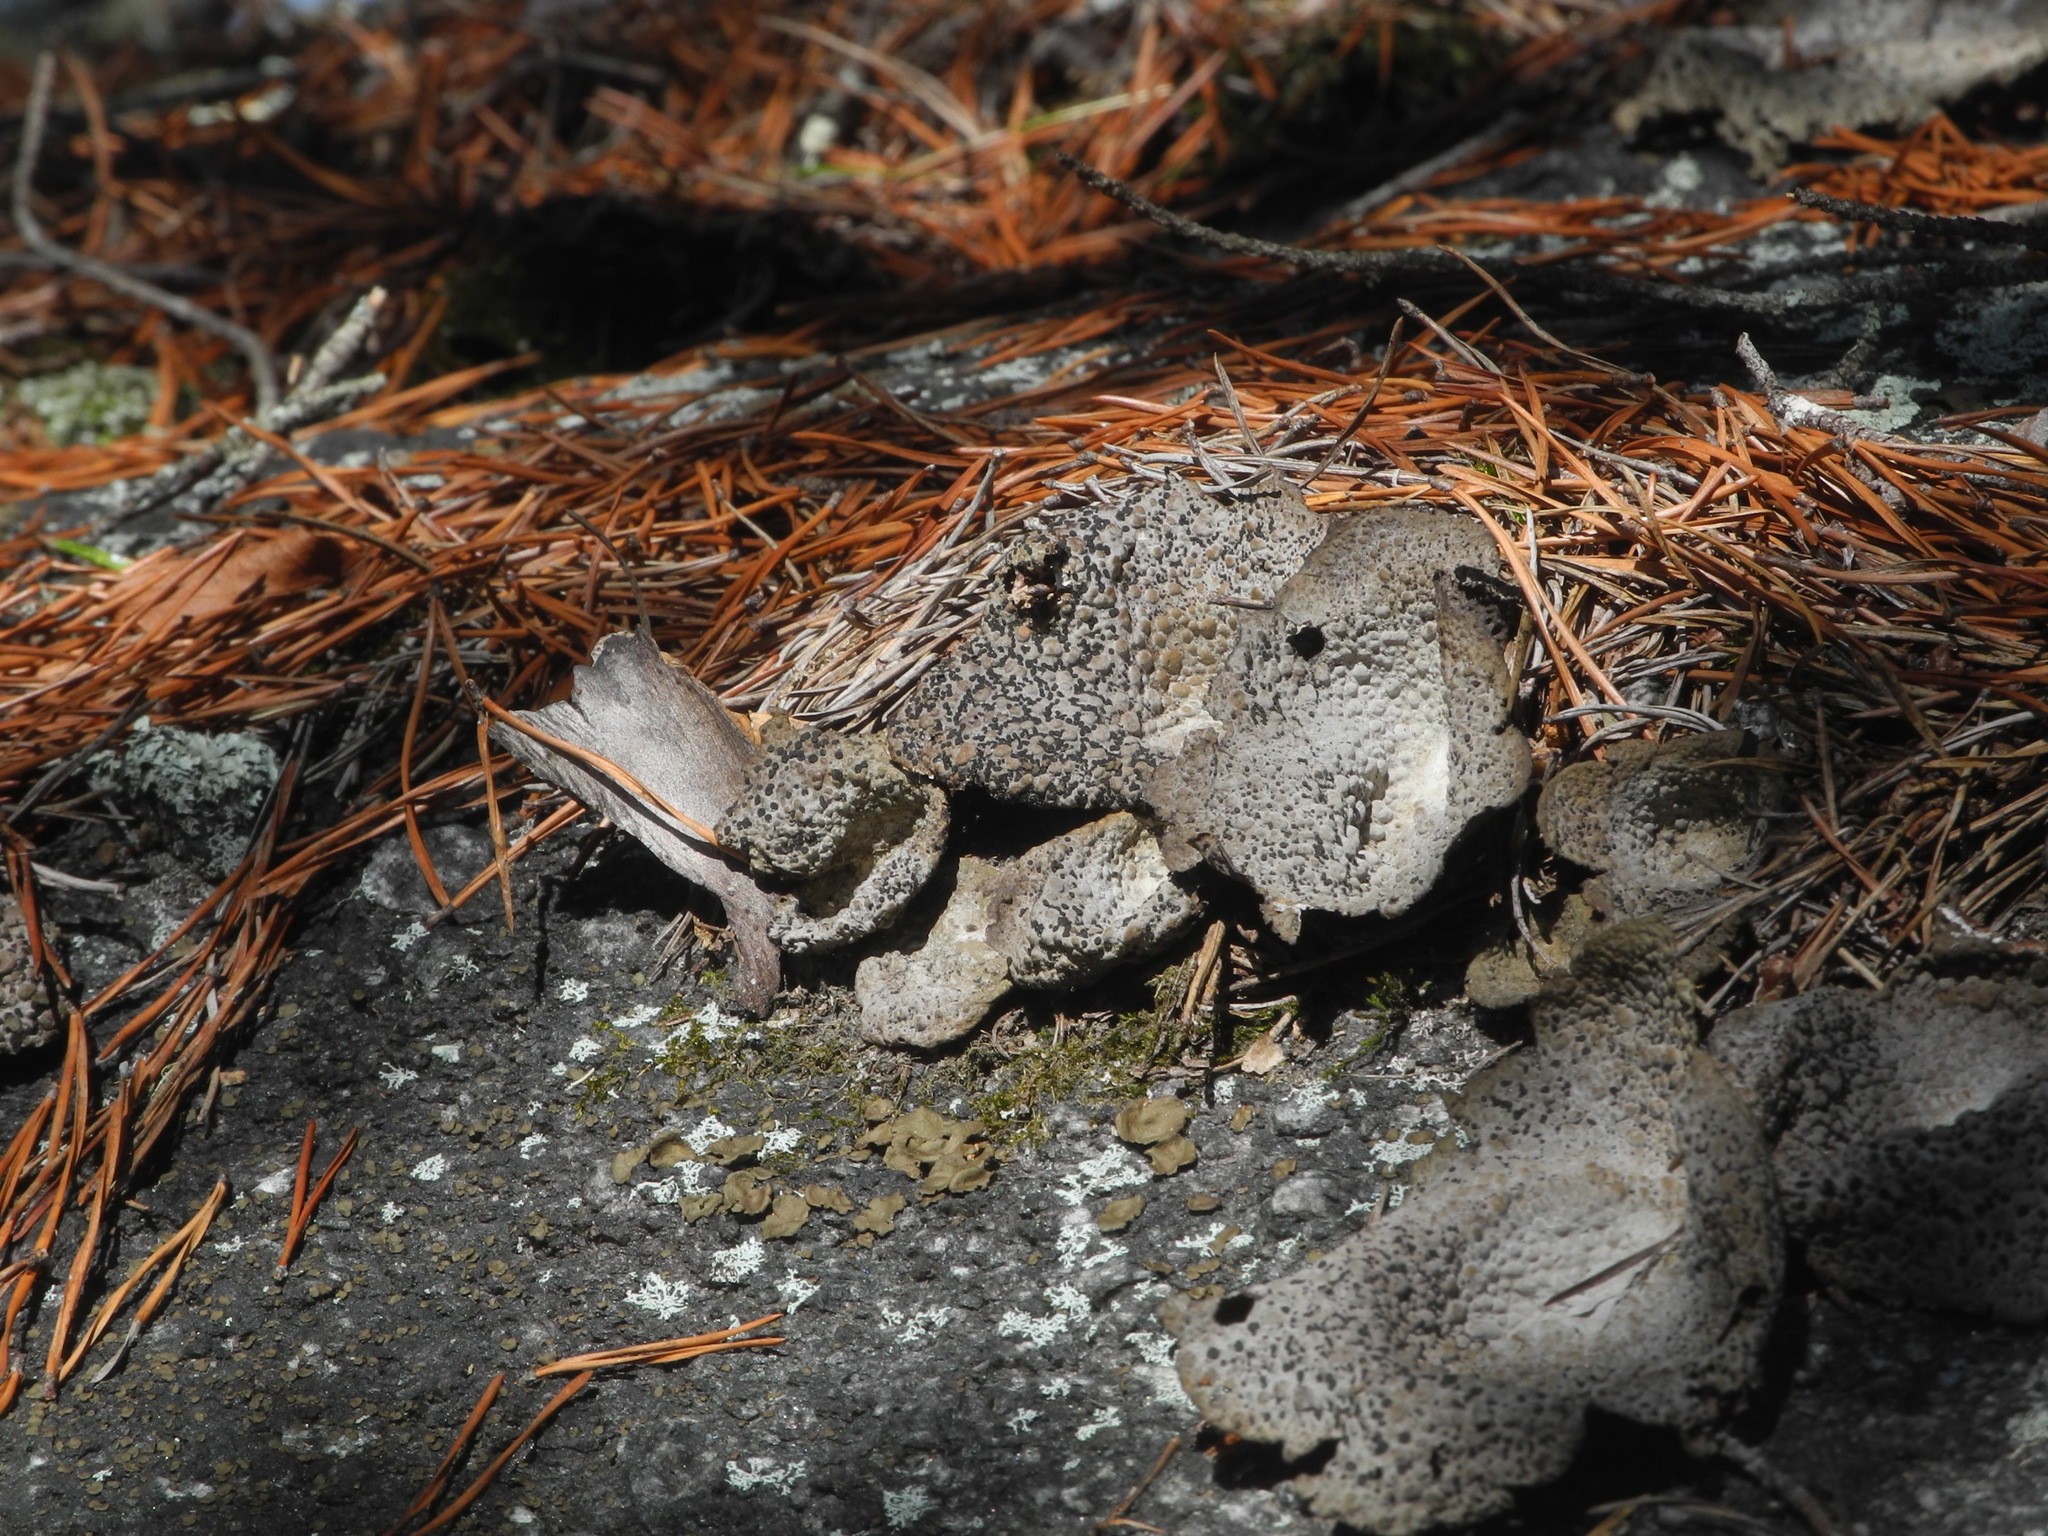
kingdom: Fungi
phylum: Ascomycota
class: Lecanoromycetes
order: Umbilicariales
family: Umbilicariaceae
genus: Lasallia
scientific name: Lasallia papulosa
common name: Common toadskin lichen
